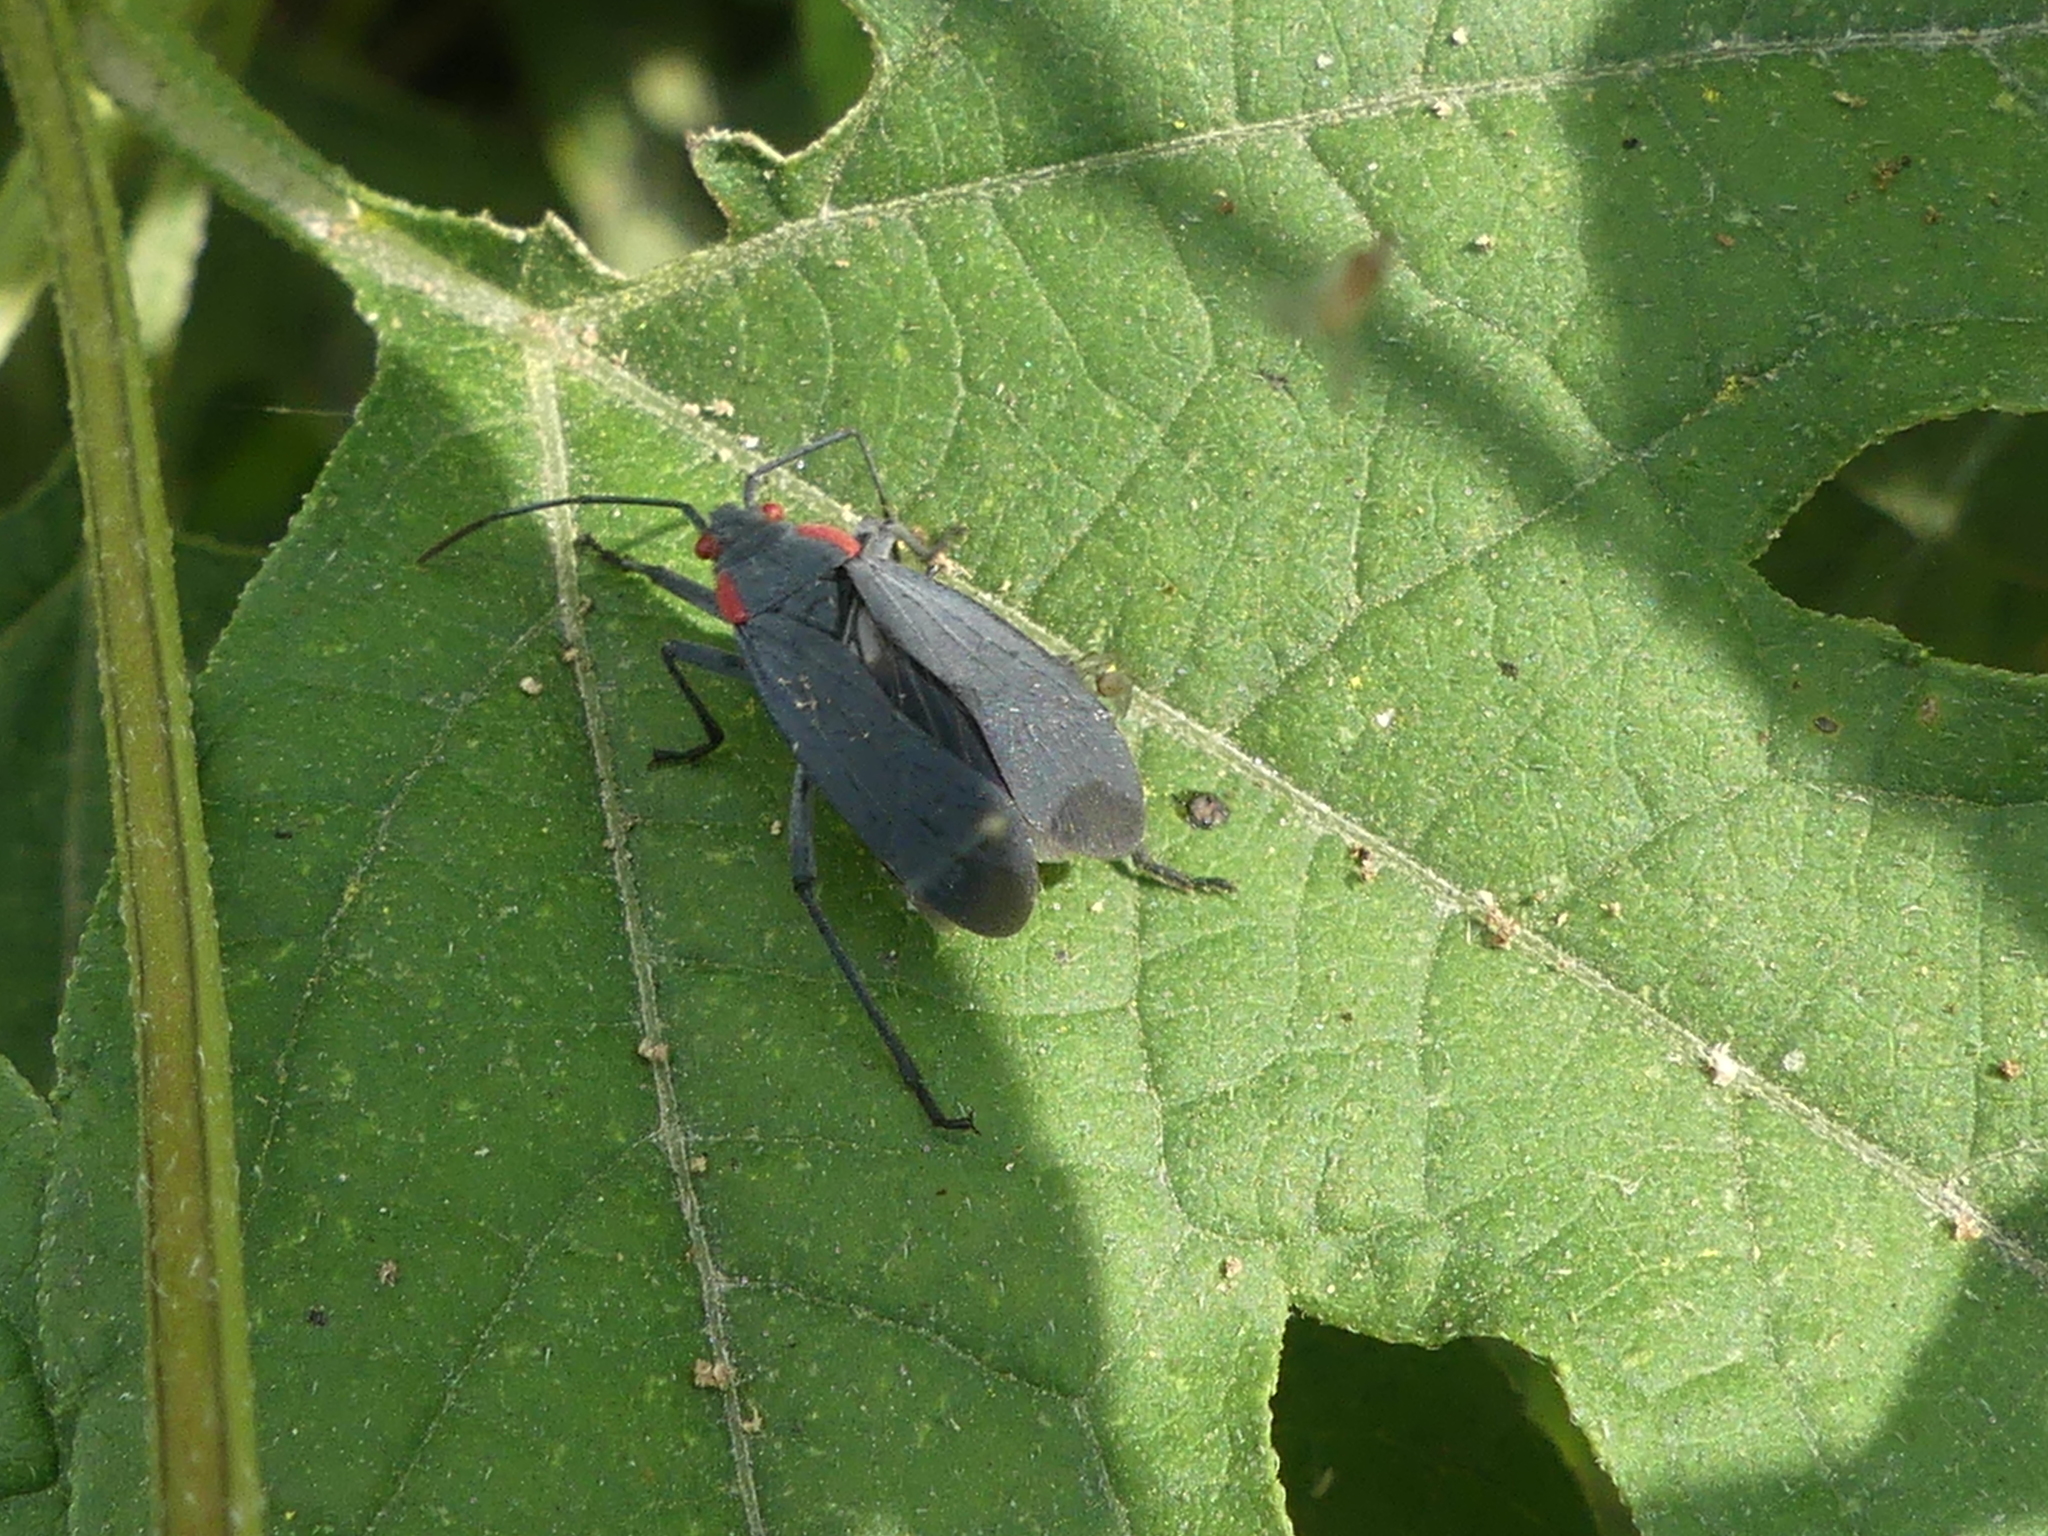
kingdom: Animalia
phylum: Arthropoda
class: Insecta
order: Hemiptera
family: Rhopalidae
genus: Jadera
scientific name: Jadera haematoloma
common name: Red-shouldered bug
